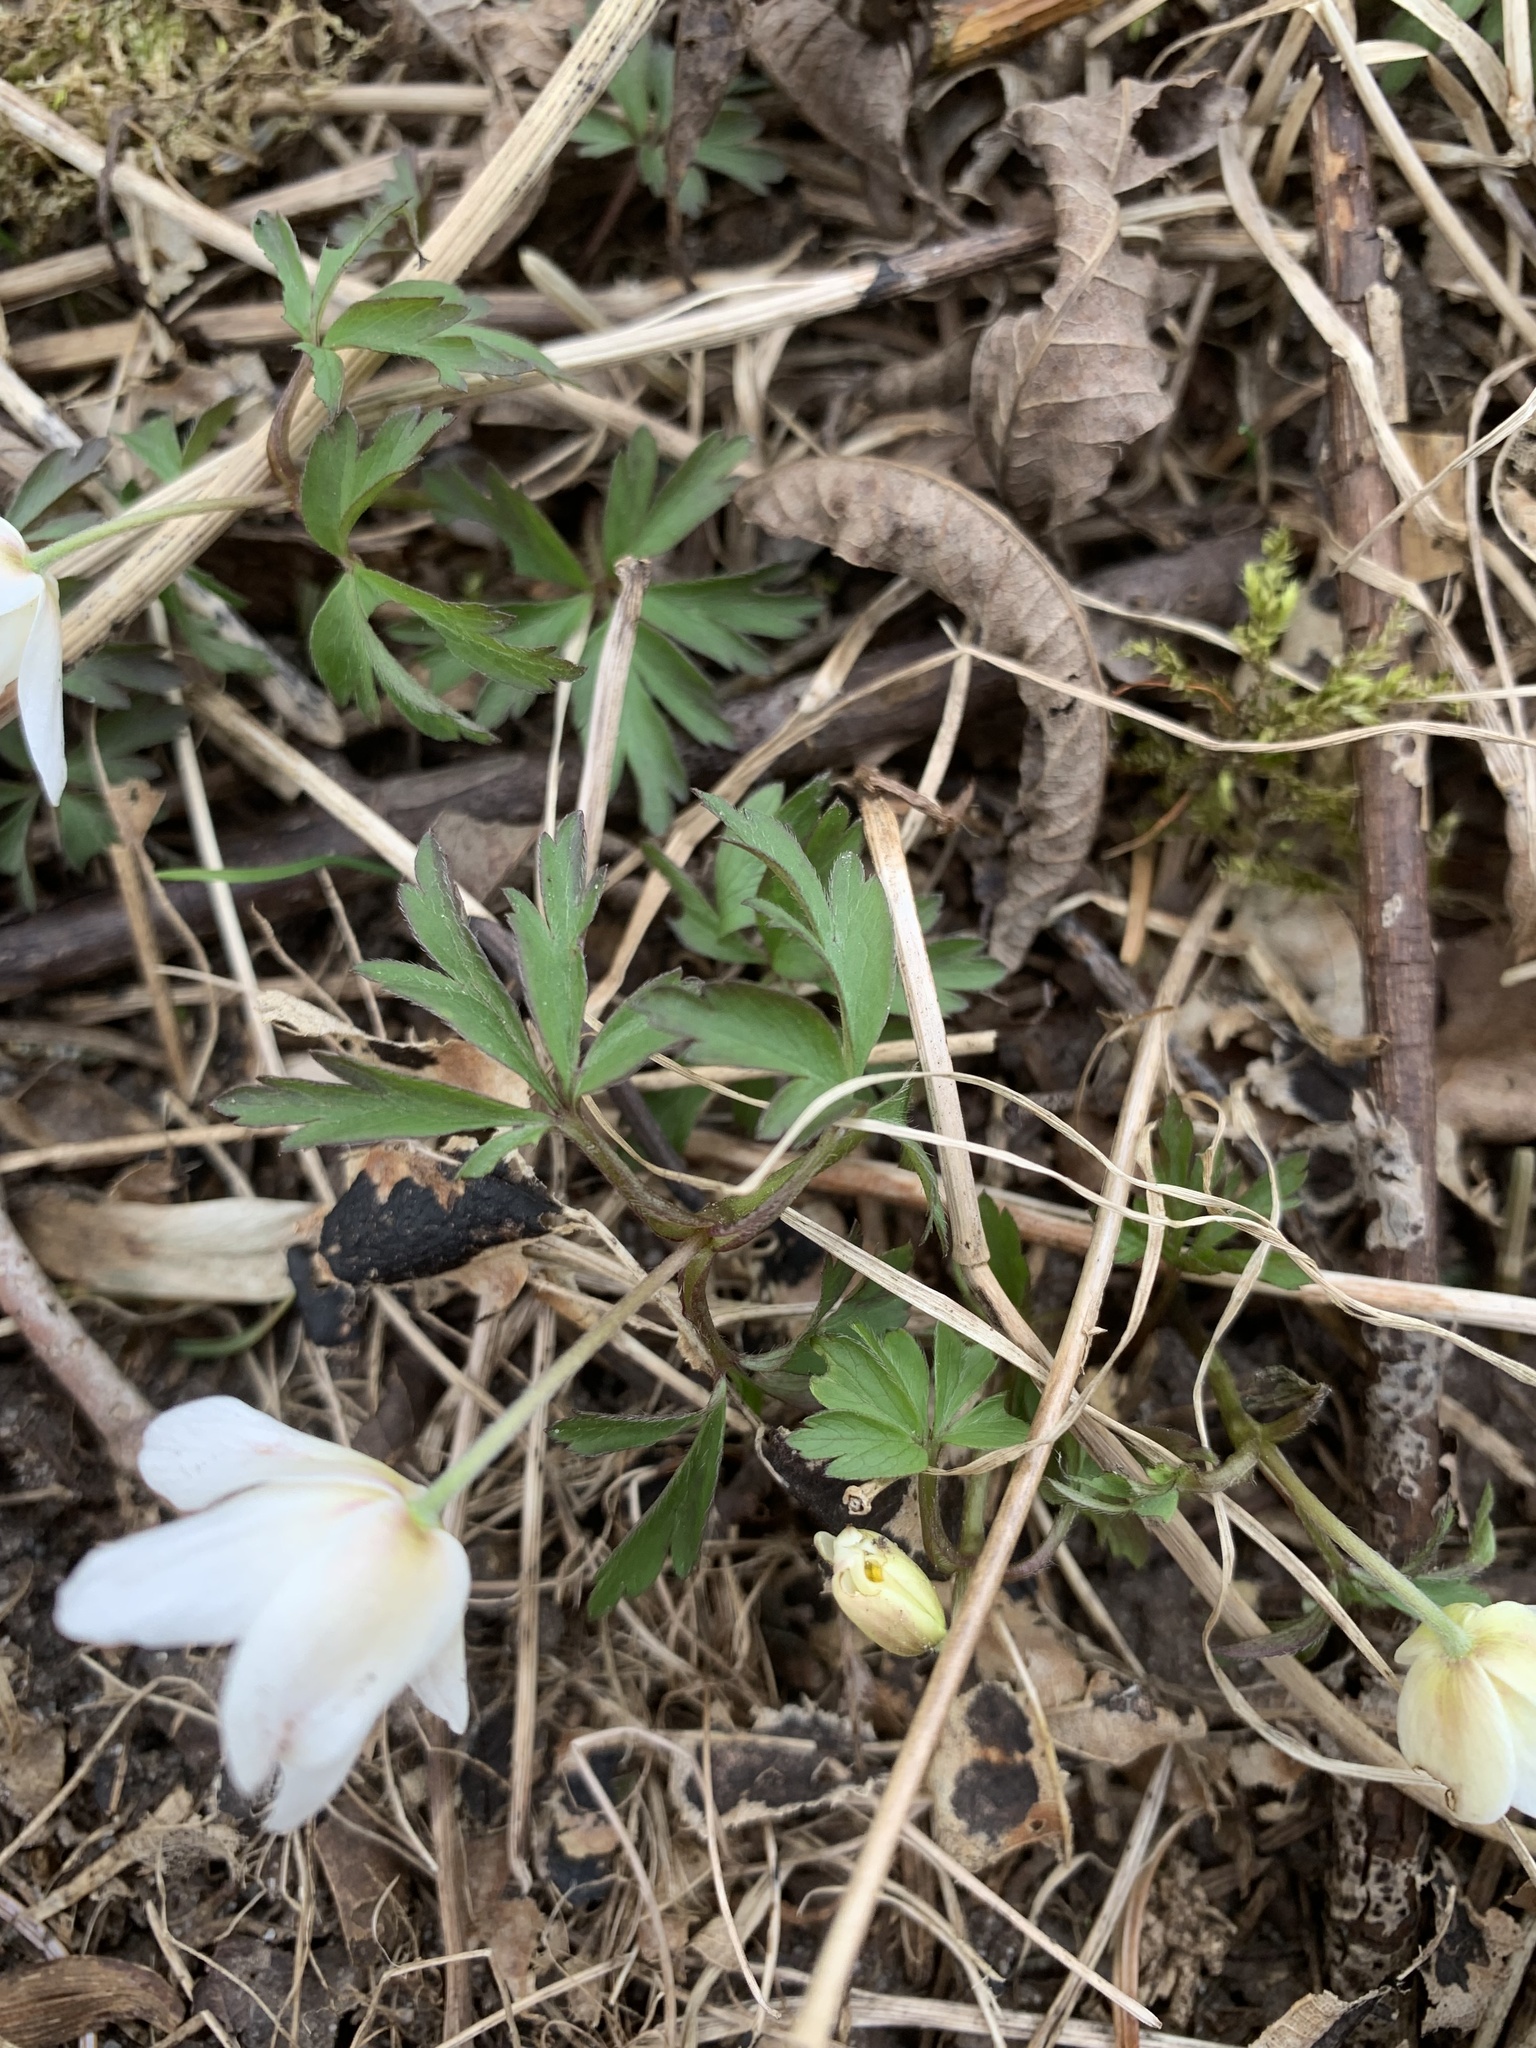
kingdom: Plantae
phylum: Tracheophyta
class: Magnoliopsida
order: Ranunculales
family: Ranunculaceae
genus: Anemone
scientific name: Anemone nemorosa
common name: Wood anemone
